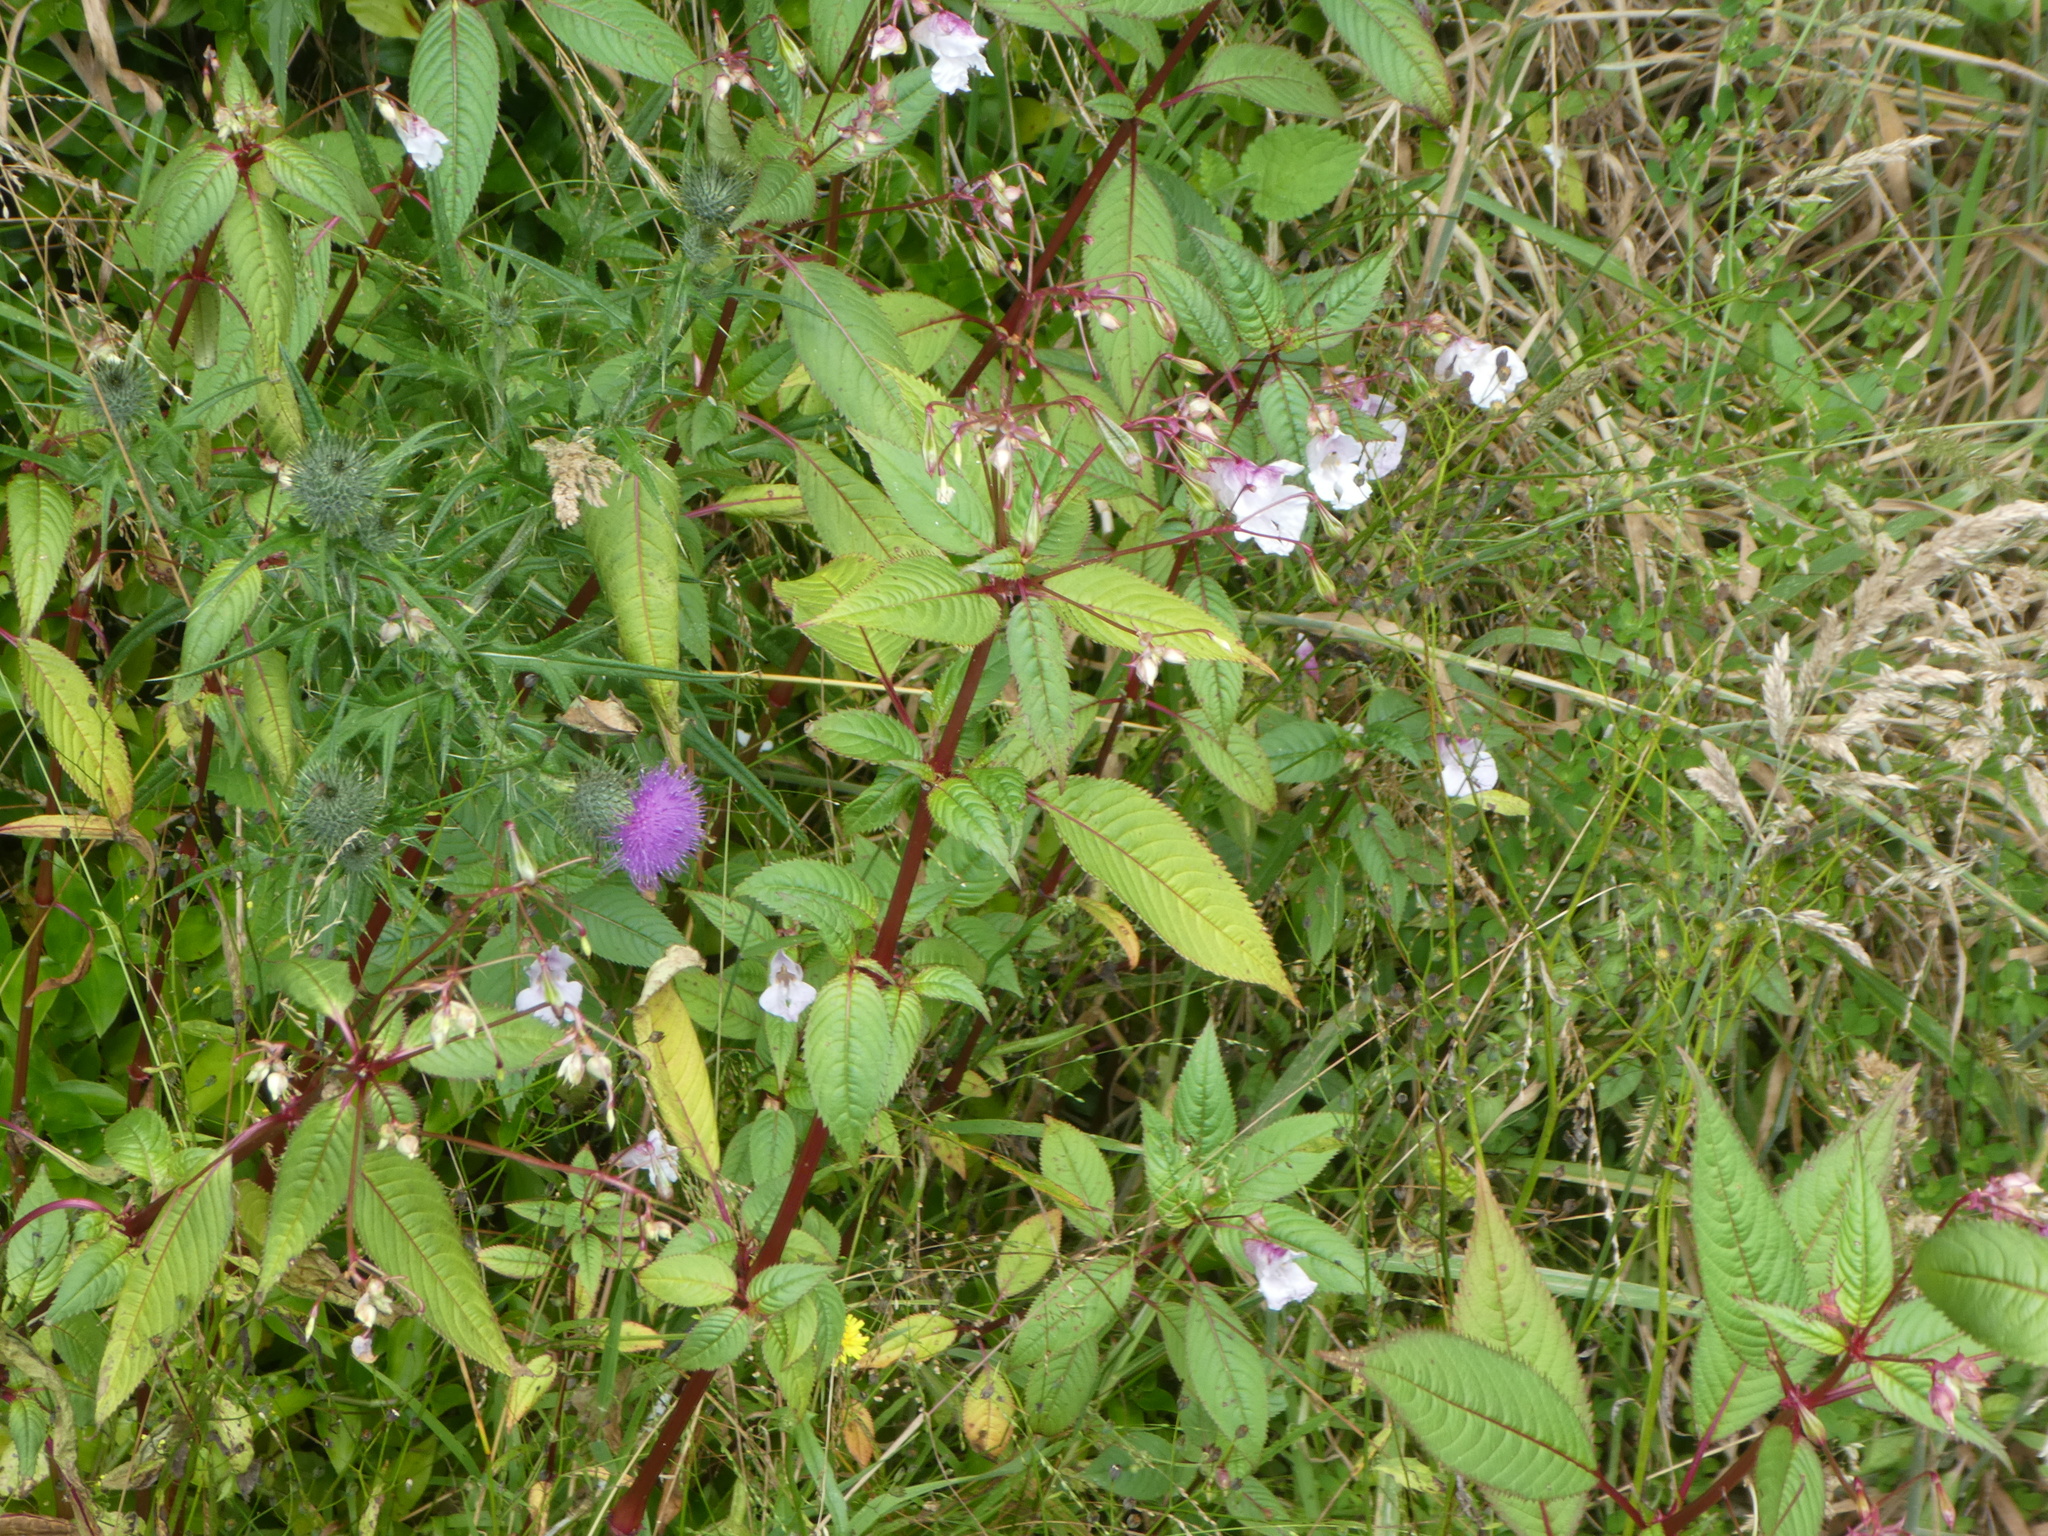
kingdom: Plantae
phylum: Tracheophyta
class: Magnoliopsida
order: Ericales
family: Balsaminaceae
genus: Impatiens
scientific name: Impatiens glandulifera
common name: Himalayan balsam
